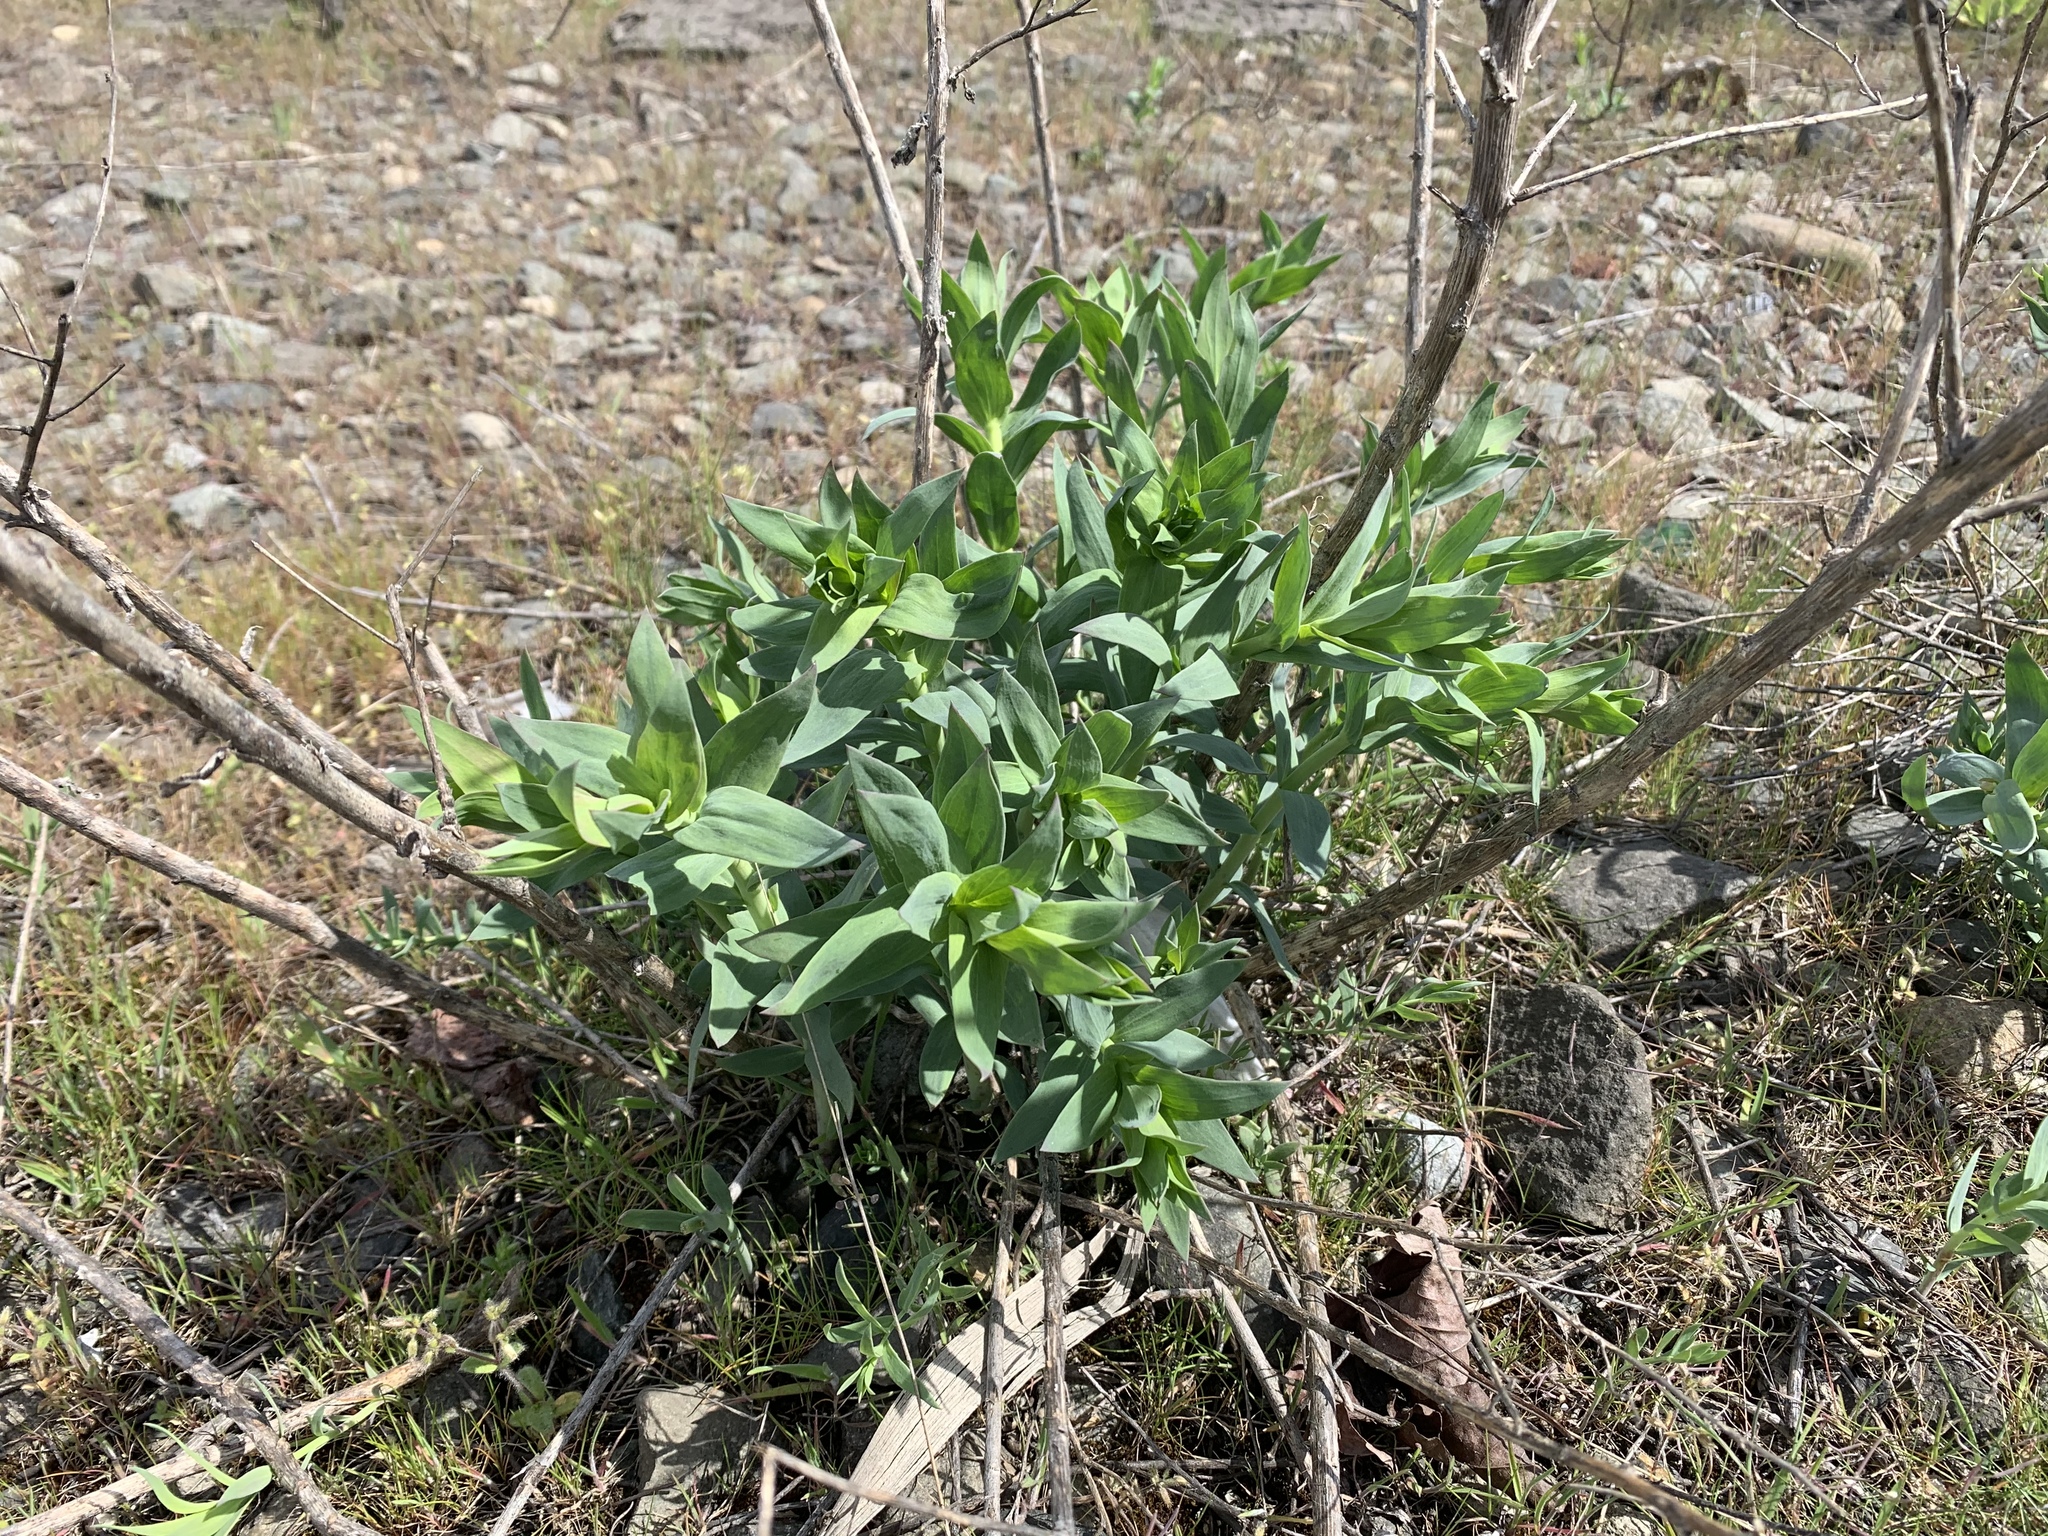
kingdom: Plantae
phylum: Tracheophyta
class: Magnoliopsida
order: Lamiales
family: Plantaginaceae
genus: Linaria
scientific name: Linaria dalmatica
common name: Dalmatian toadflax
